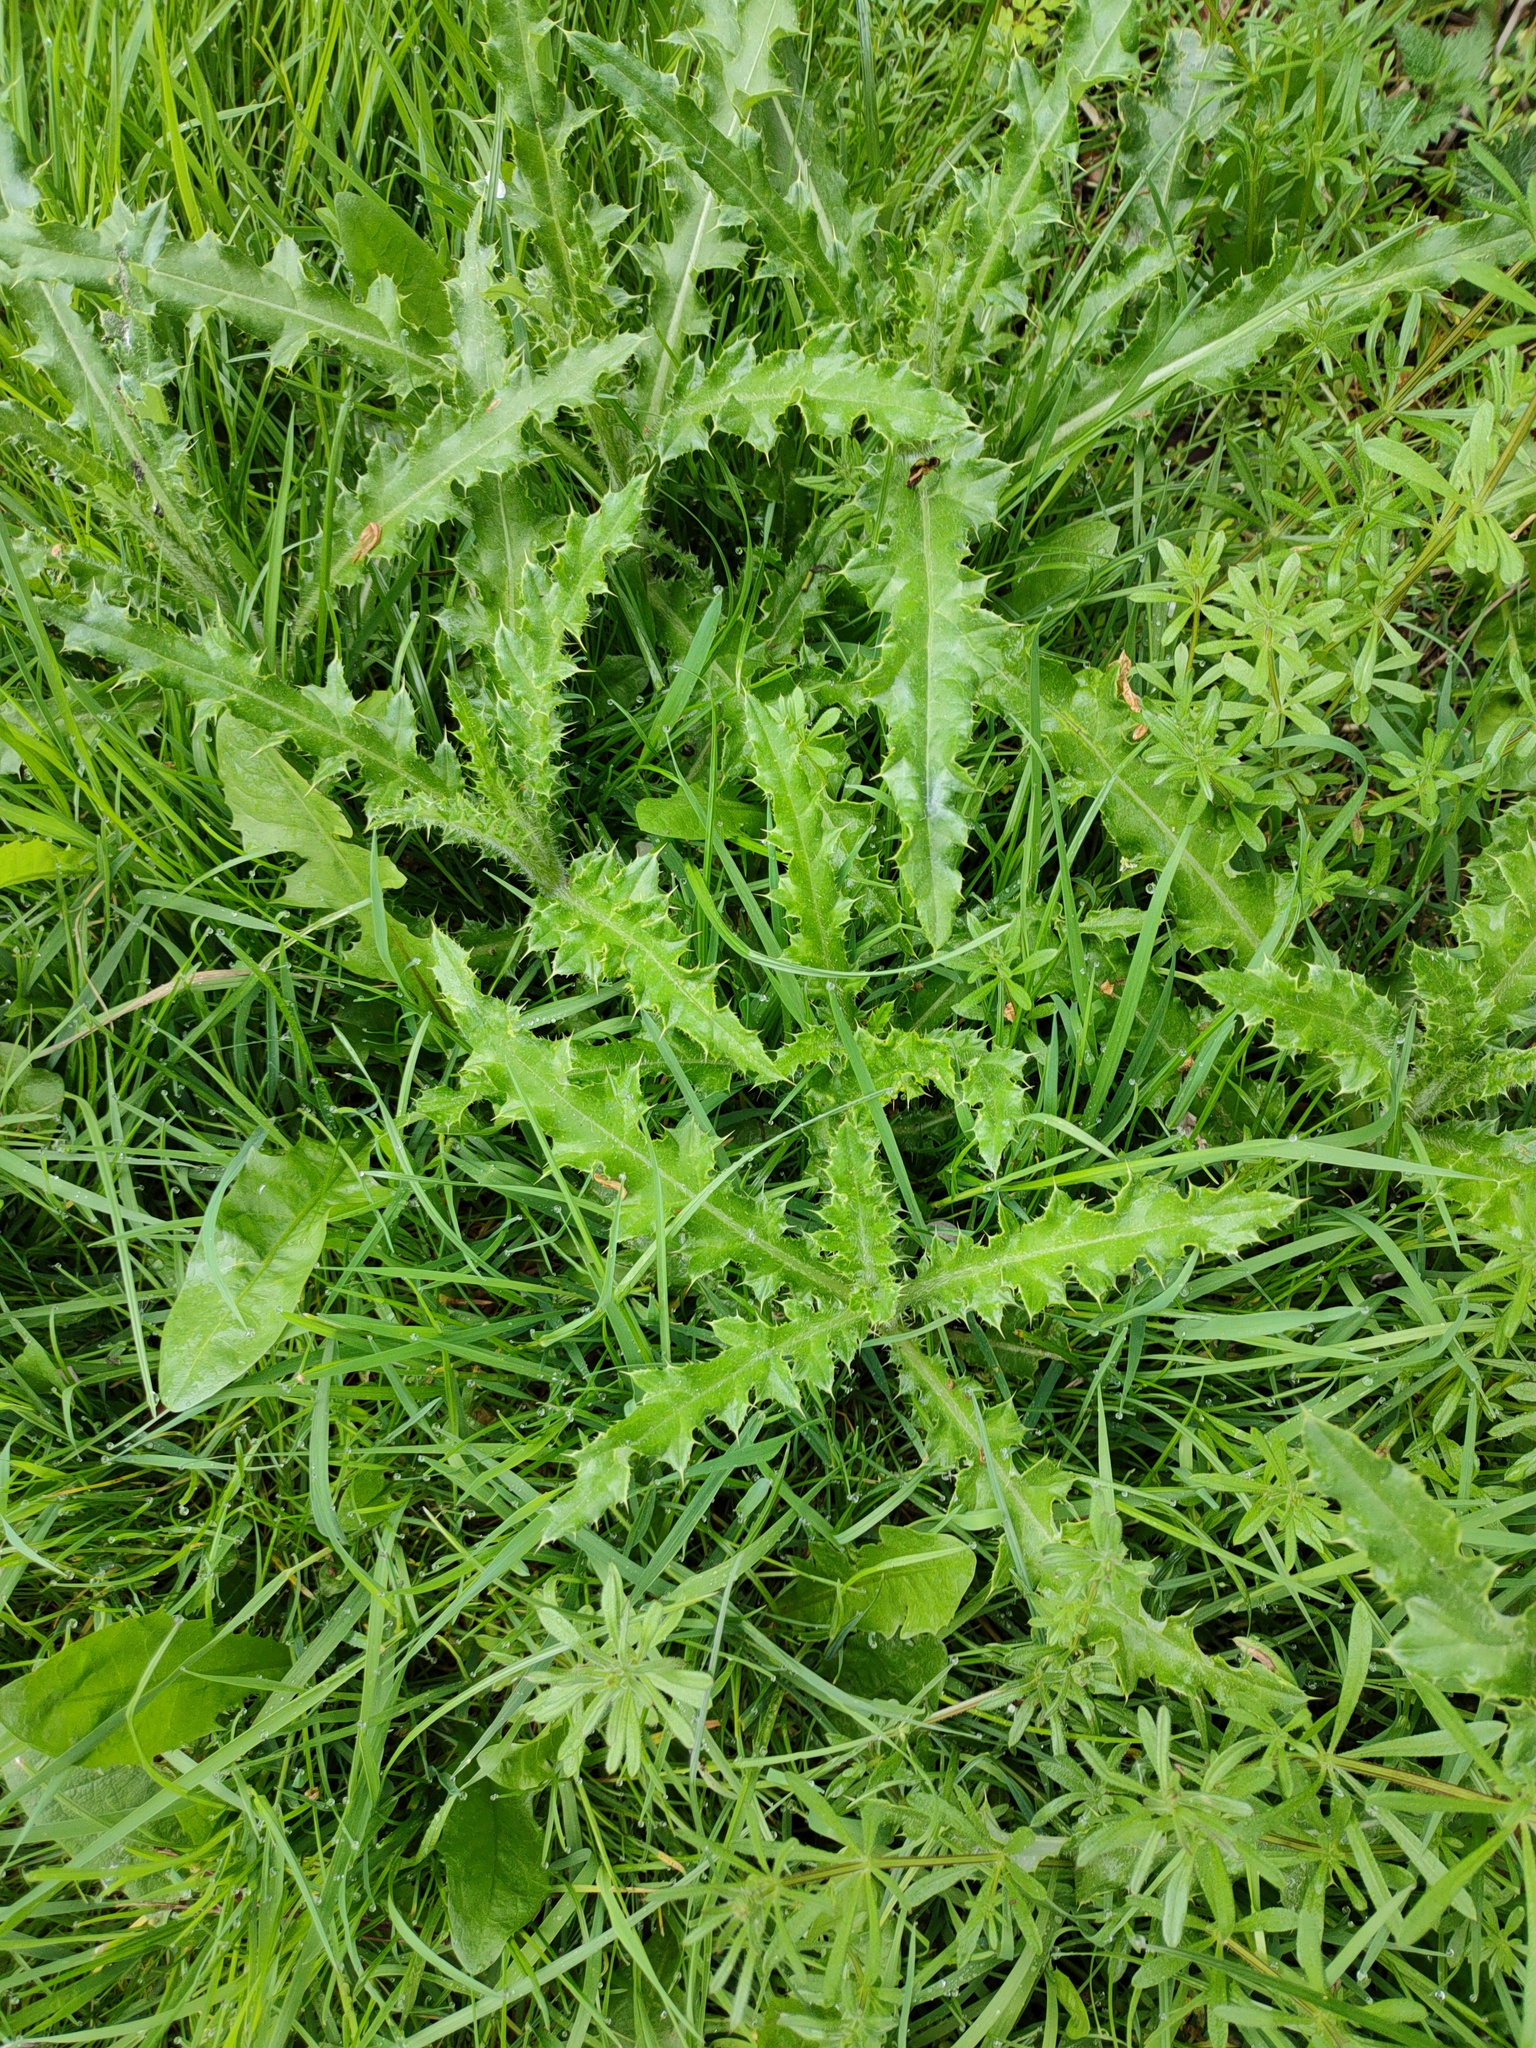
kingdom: Plantae
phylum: Tracheophyta
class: Magnoliopsida
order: Asterales
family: Asteraceae
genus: Cirsium
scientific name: Cirsium arvense
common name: Creeping thistle
